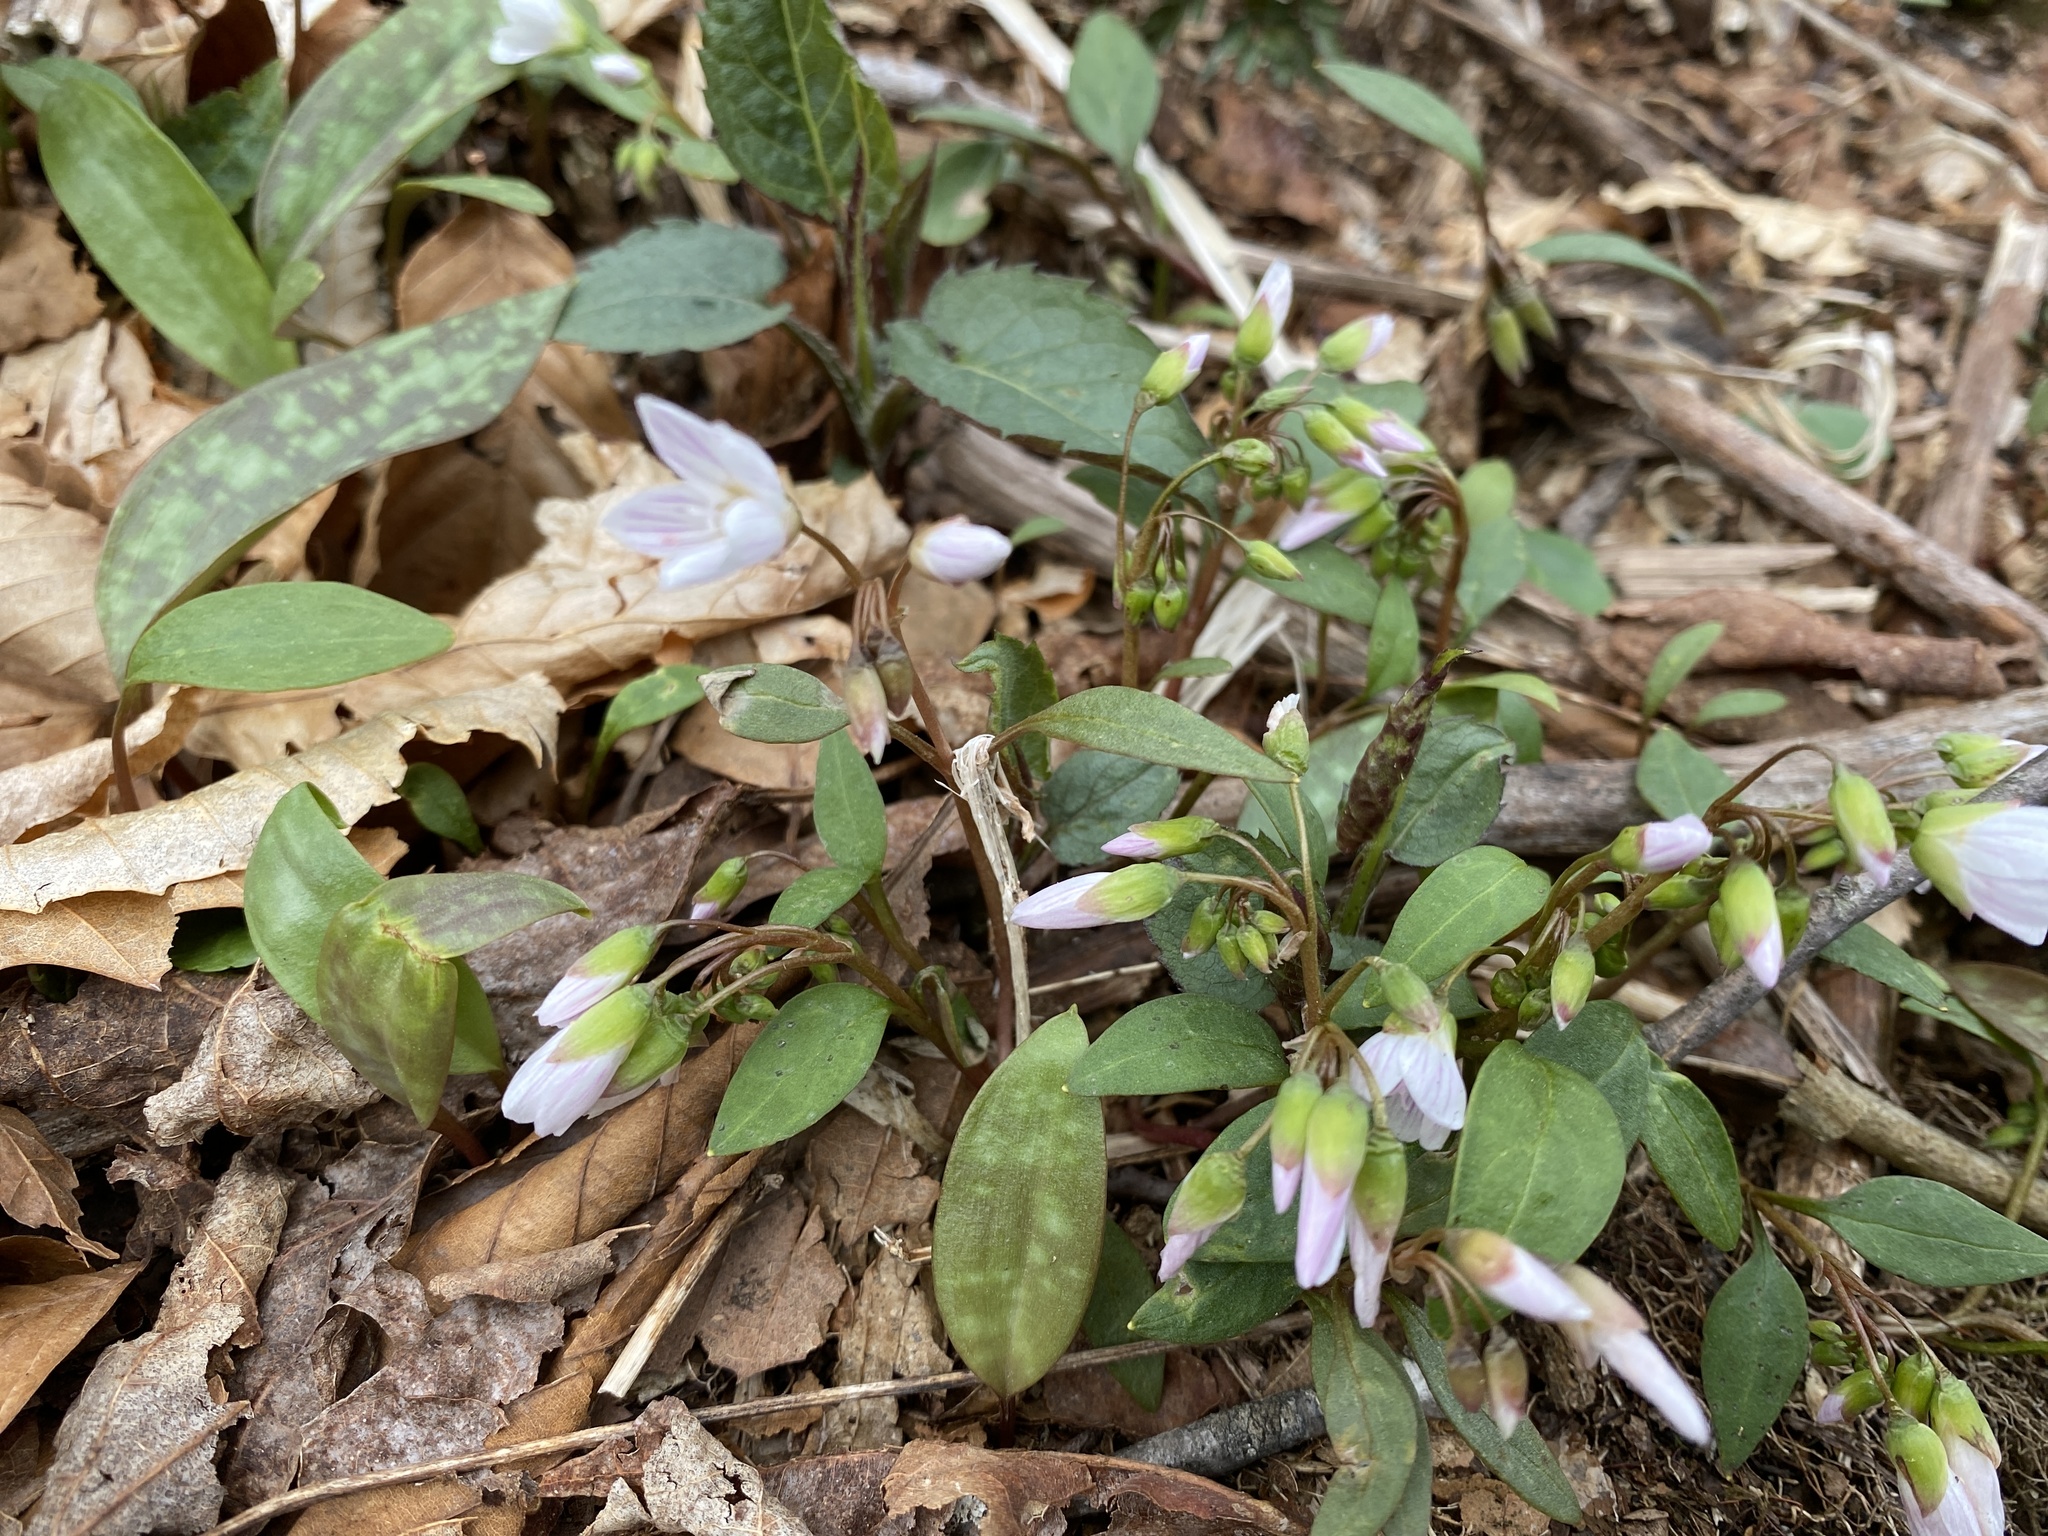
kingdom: Plantae
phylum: Tracheophyta
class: Magnoliopsida
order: Caryophyllales
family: Montiaceae
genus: Claytonia
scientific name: Claytonia caroliniana
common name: Carolina spring beauty
